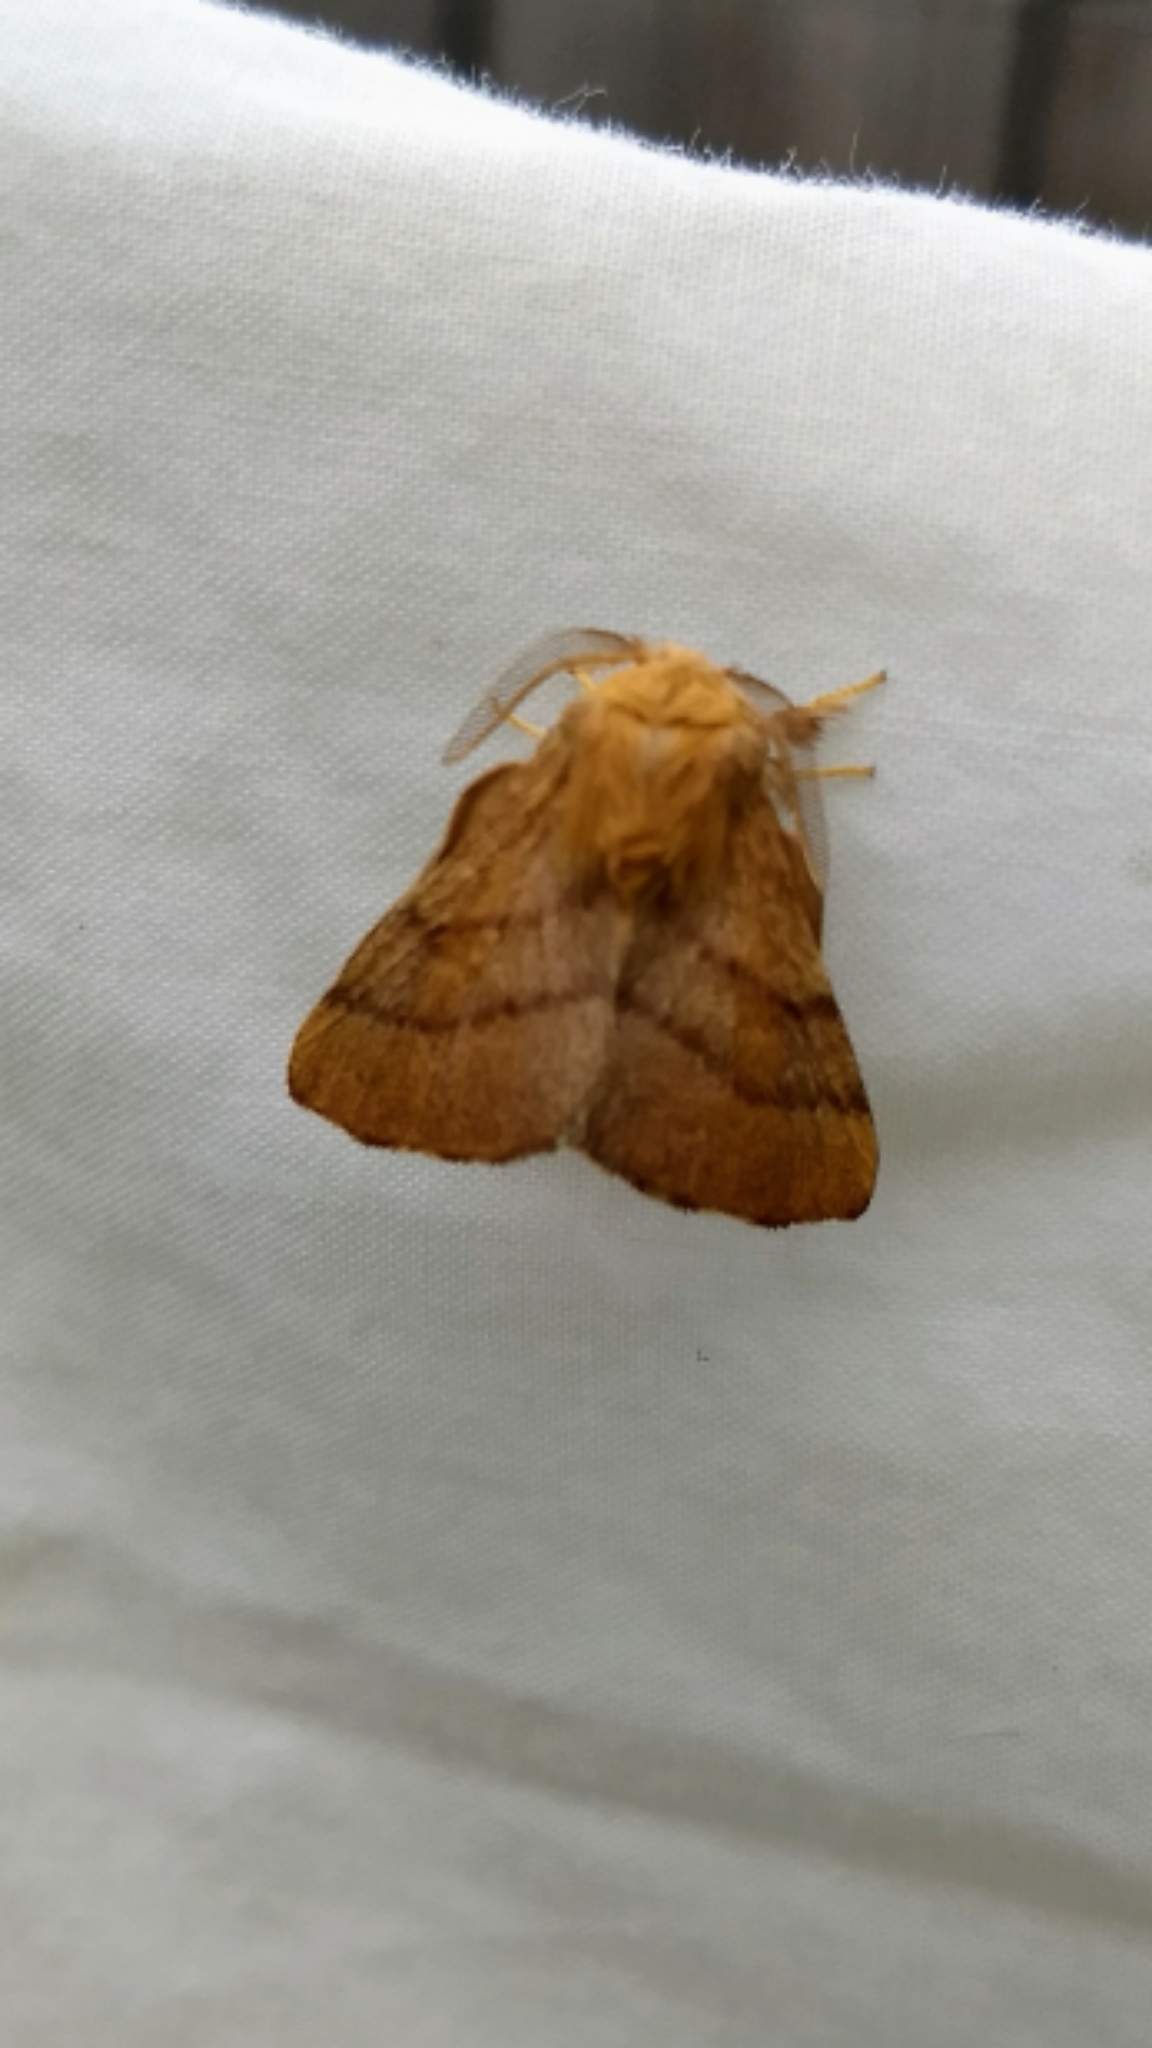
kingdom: Animalia
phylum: Arthropoda
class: Insecta
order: Lepidoptera
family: Lasiocampidae
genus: Malacosoma
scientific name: Malacosoma disstria
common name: Forest tent caterpillar
